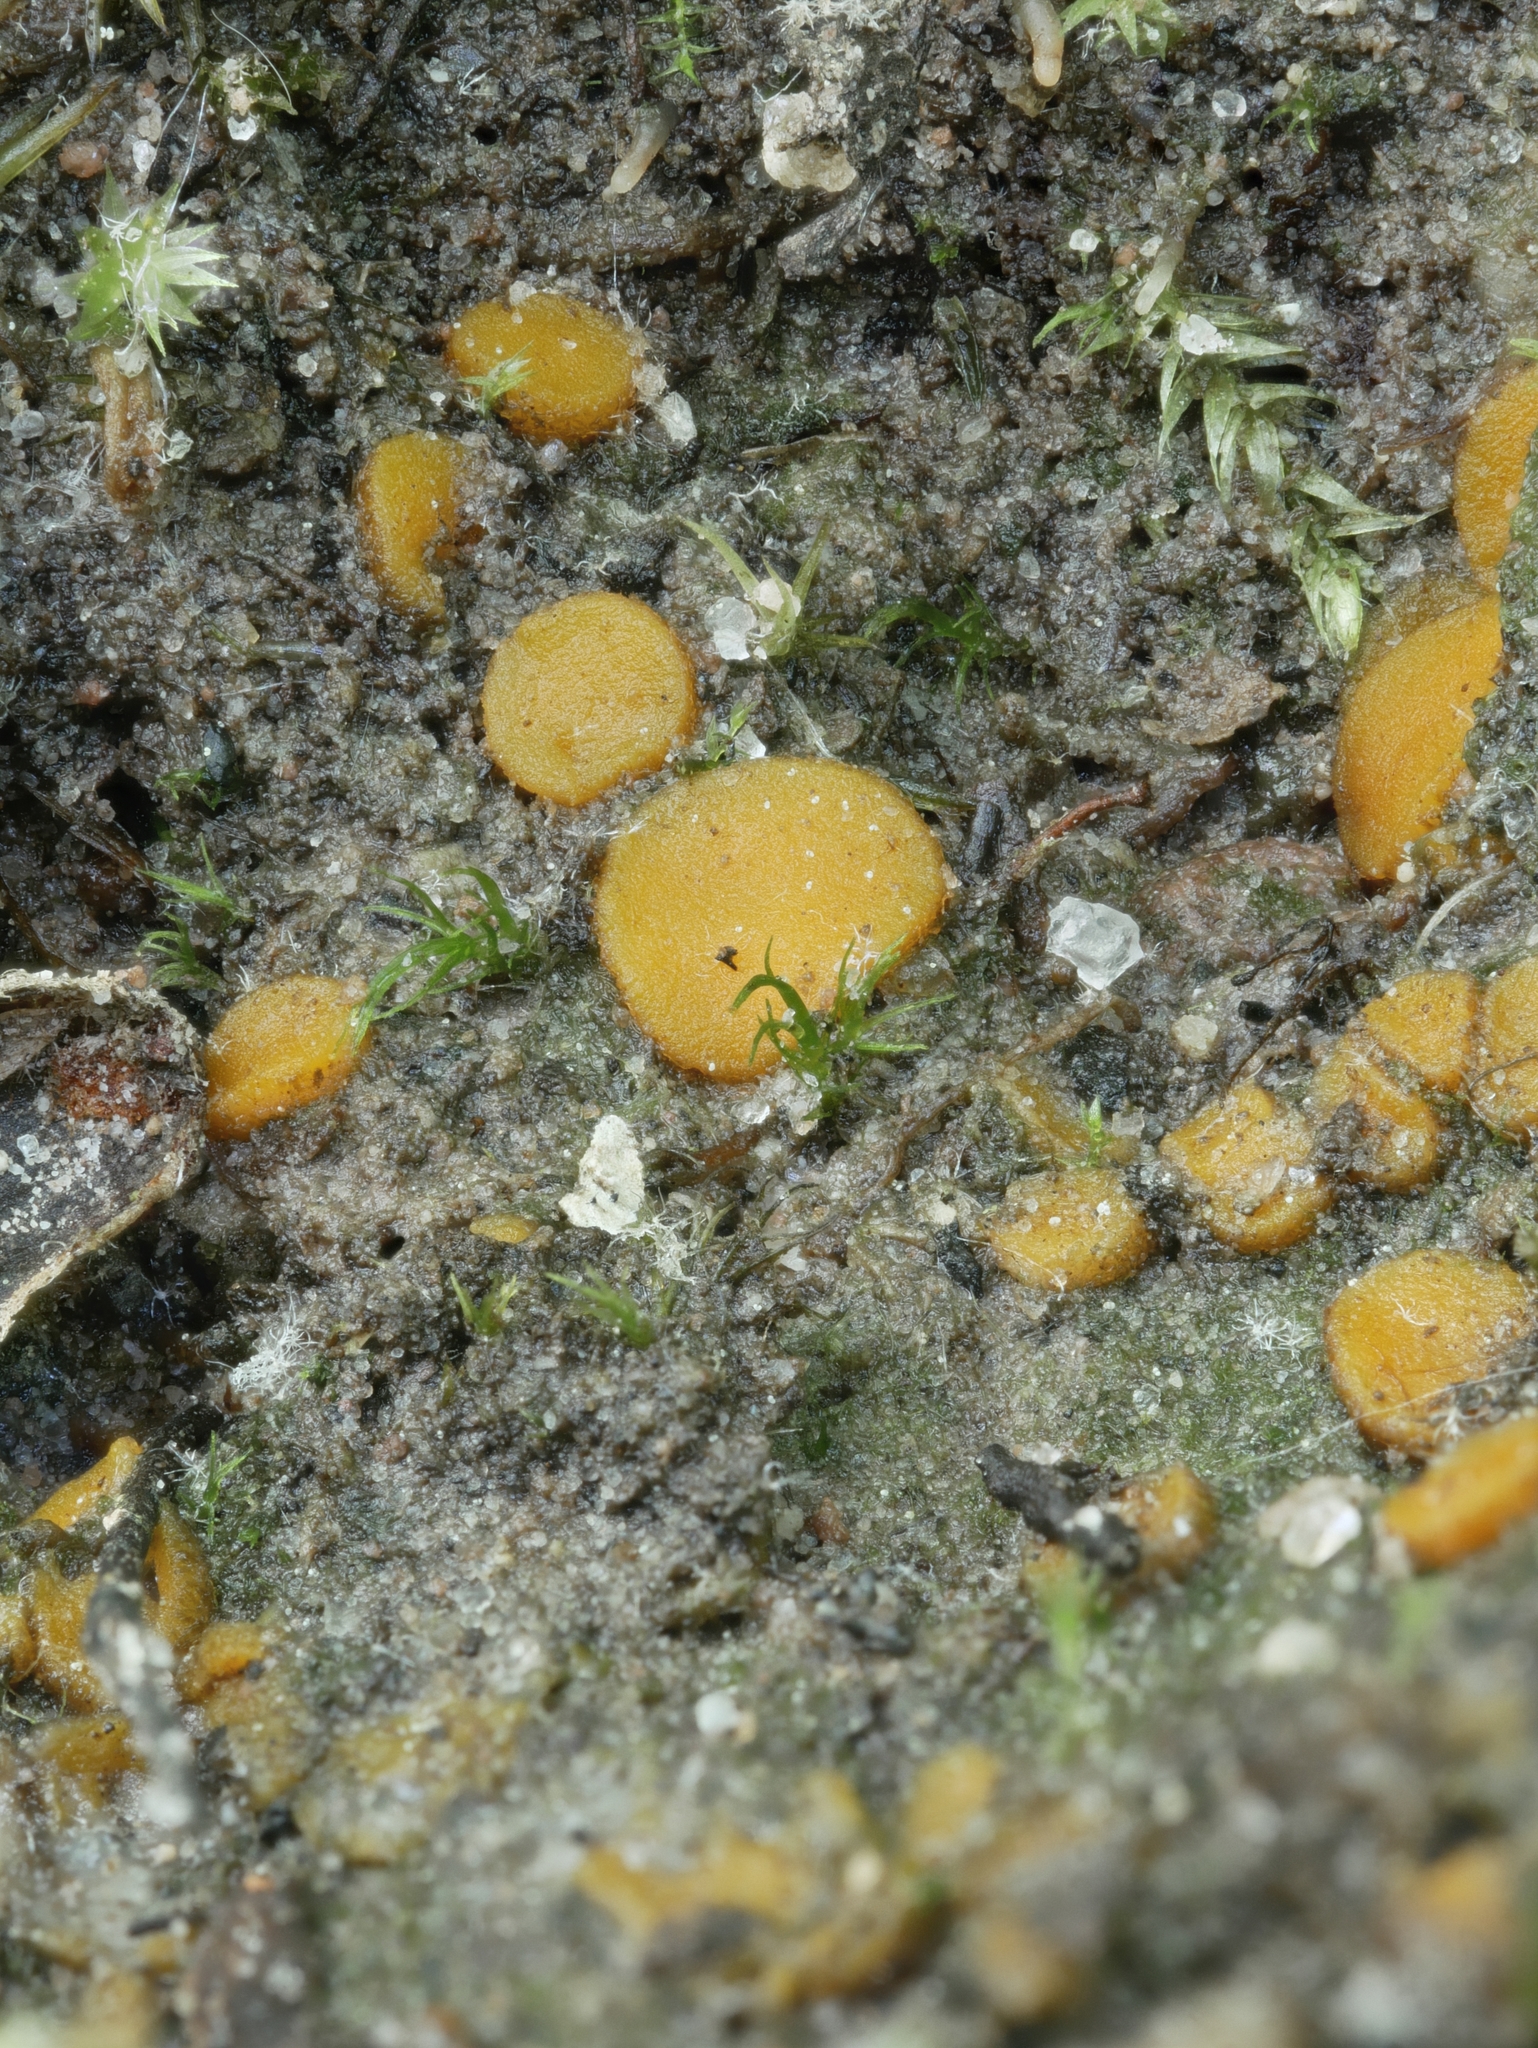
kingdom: Fungi
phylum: Ascomycota
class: Pezizomycetes
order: Pezizales
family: Pyronemataceae
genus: Lamprospora
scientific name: Lamprospora crechqueraultii
